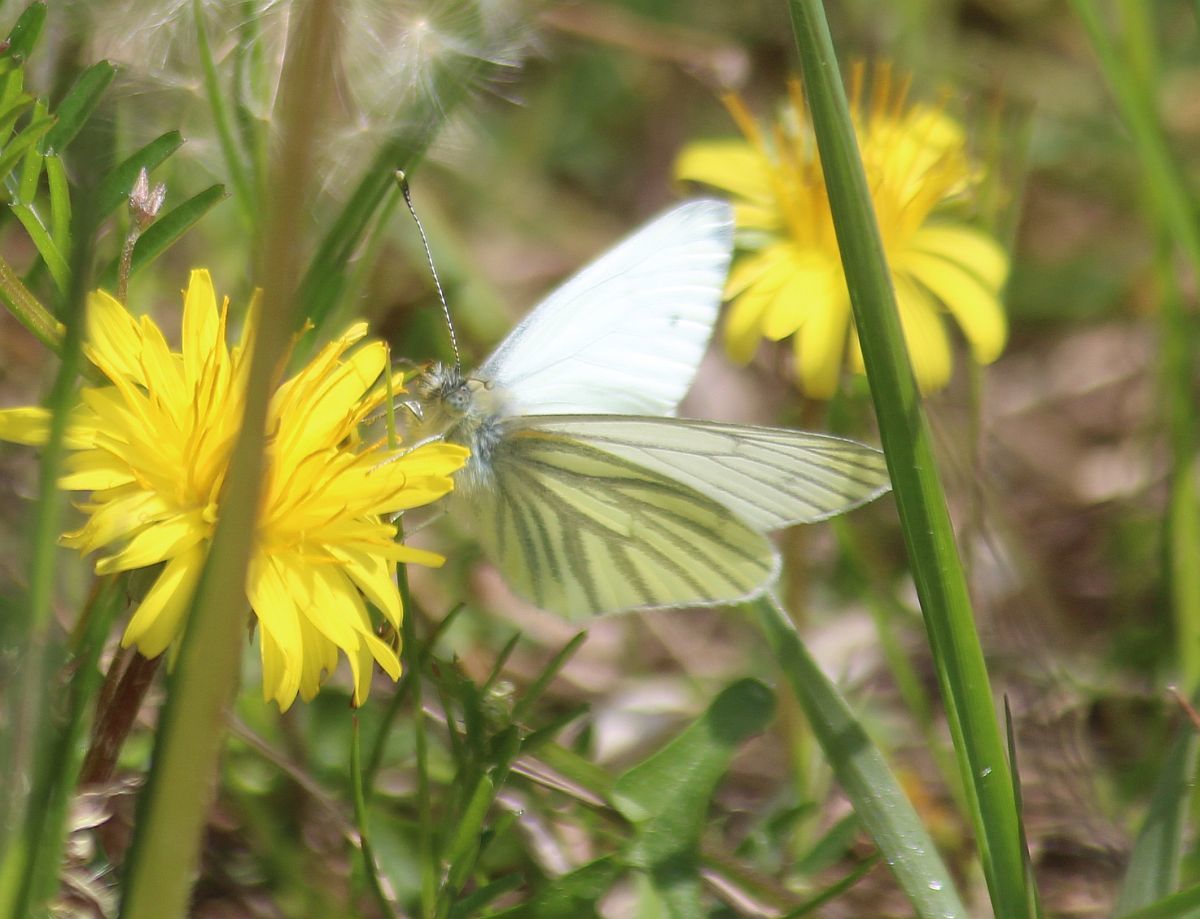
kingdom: Animalia
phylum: Arthropoda
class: Insecta
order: Lepidoptera
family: Pieridae
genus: Pieris
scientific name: Pieris napi
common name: Green-veined white
